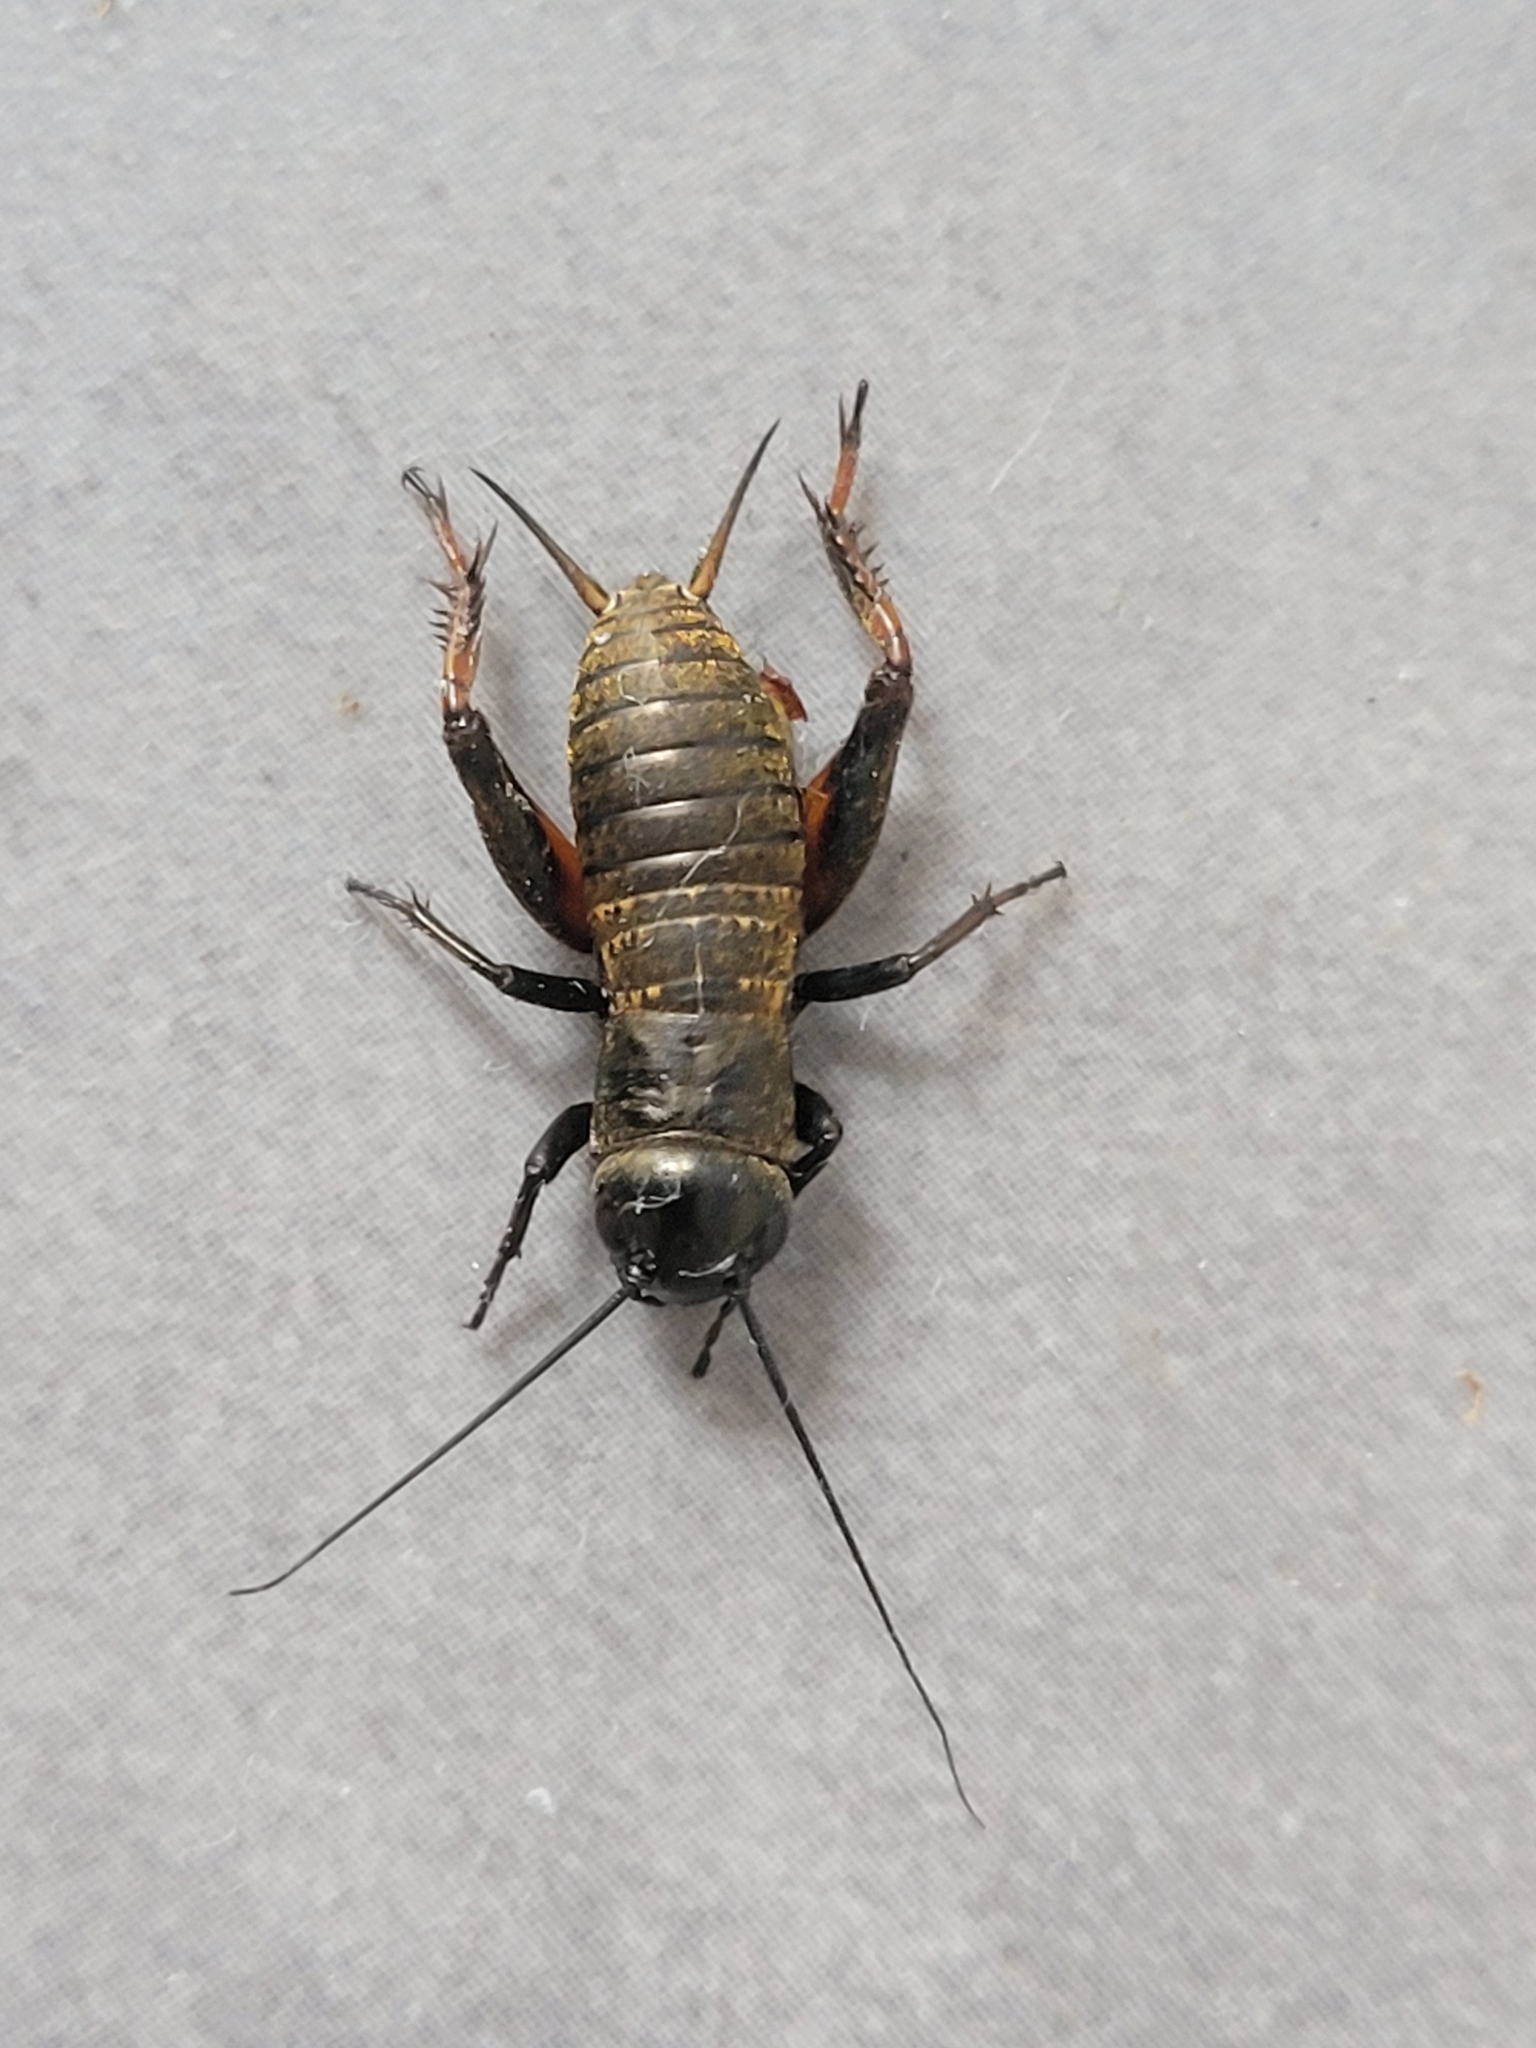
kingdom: Animalia
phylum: Arthropoda
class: Insecta
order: Orthoptera
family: Gryllidae
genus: Gryllus
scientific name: Gryllus campestris
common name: Field cricket
